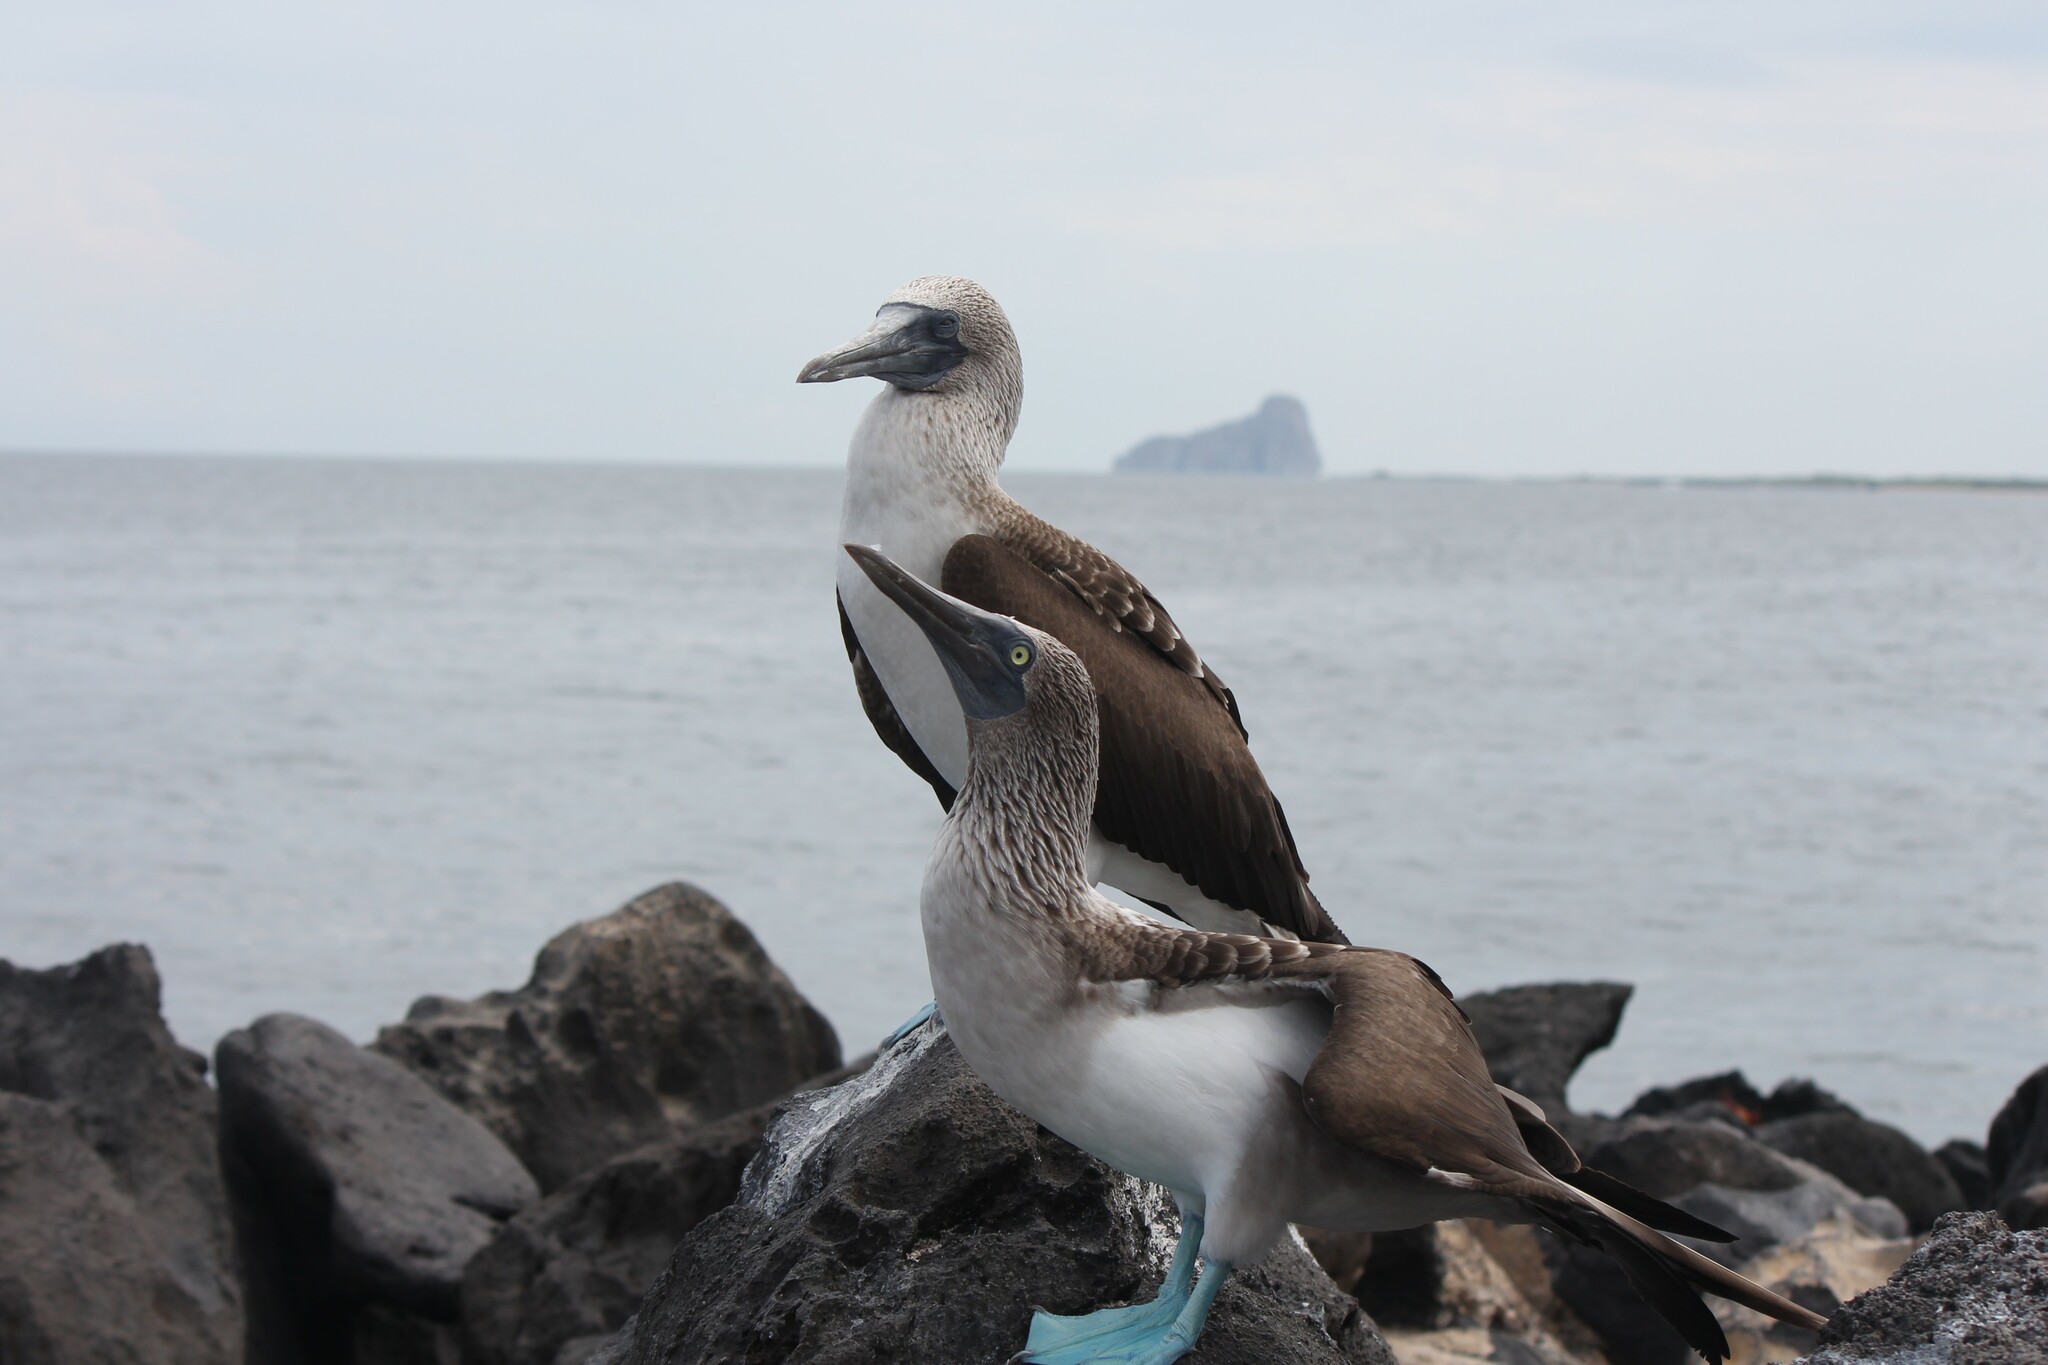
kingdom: Animalia
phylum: Chordata
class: Aves
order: Suliformes
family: Sulidae
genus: Sula
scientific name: Sula nebouxii
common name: Blue-footed booby
